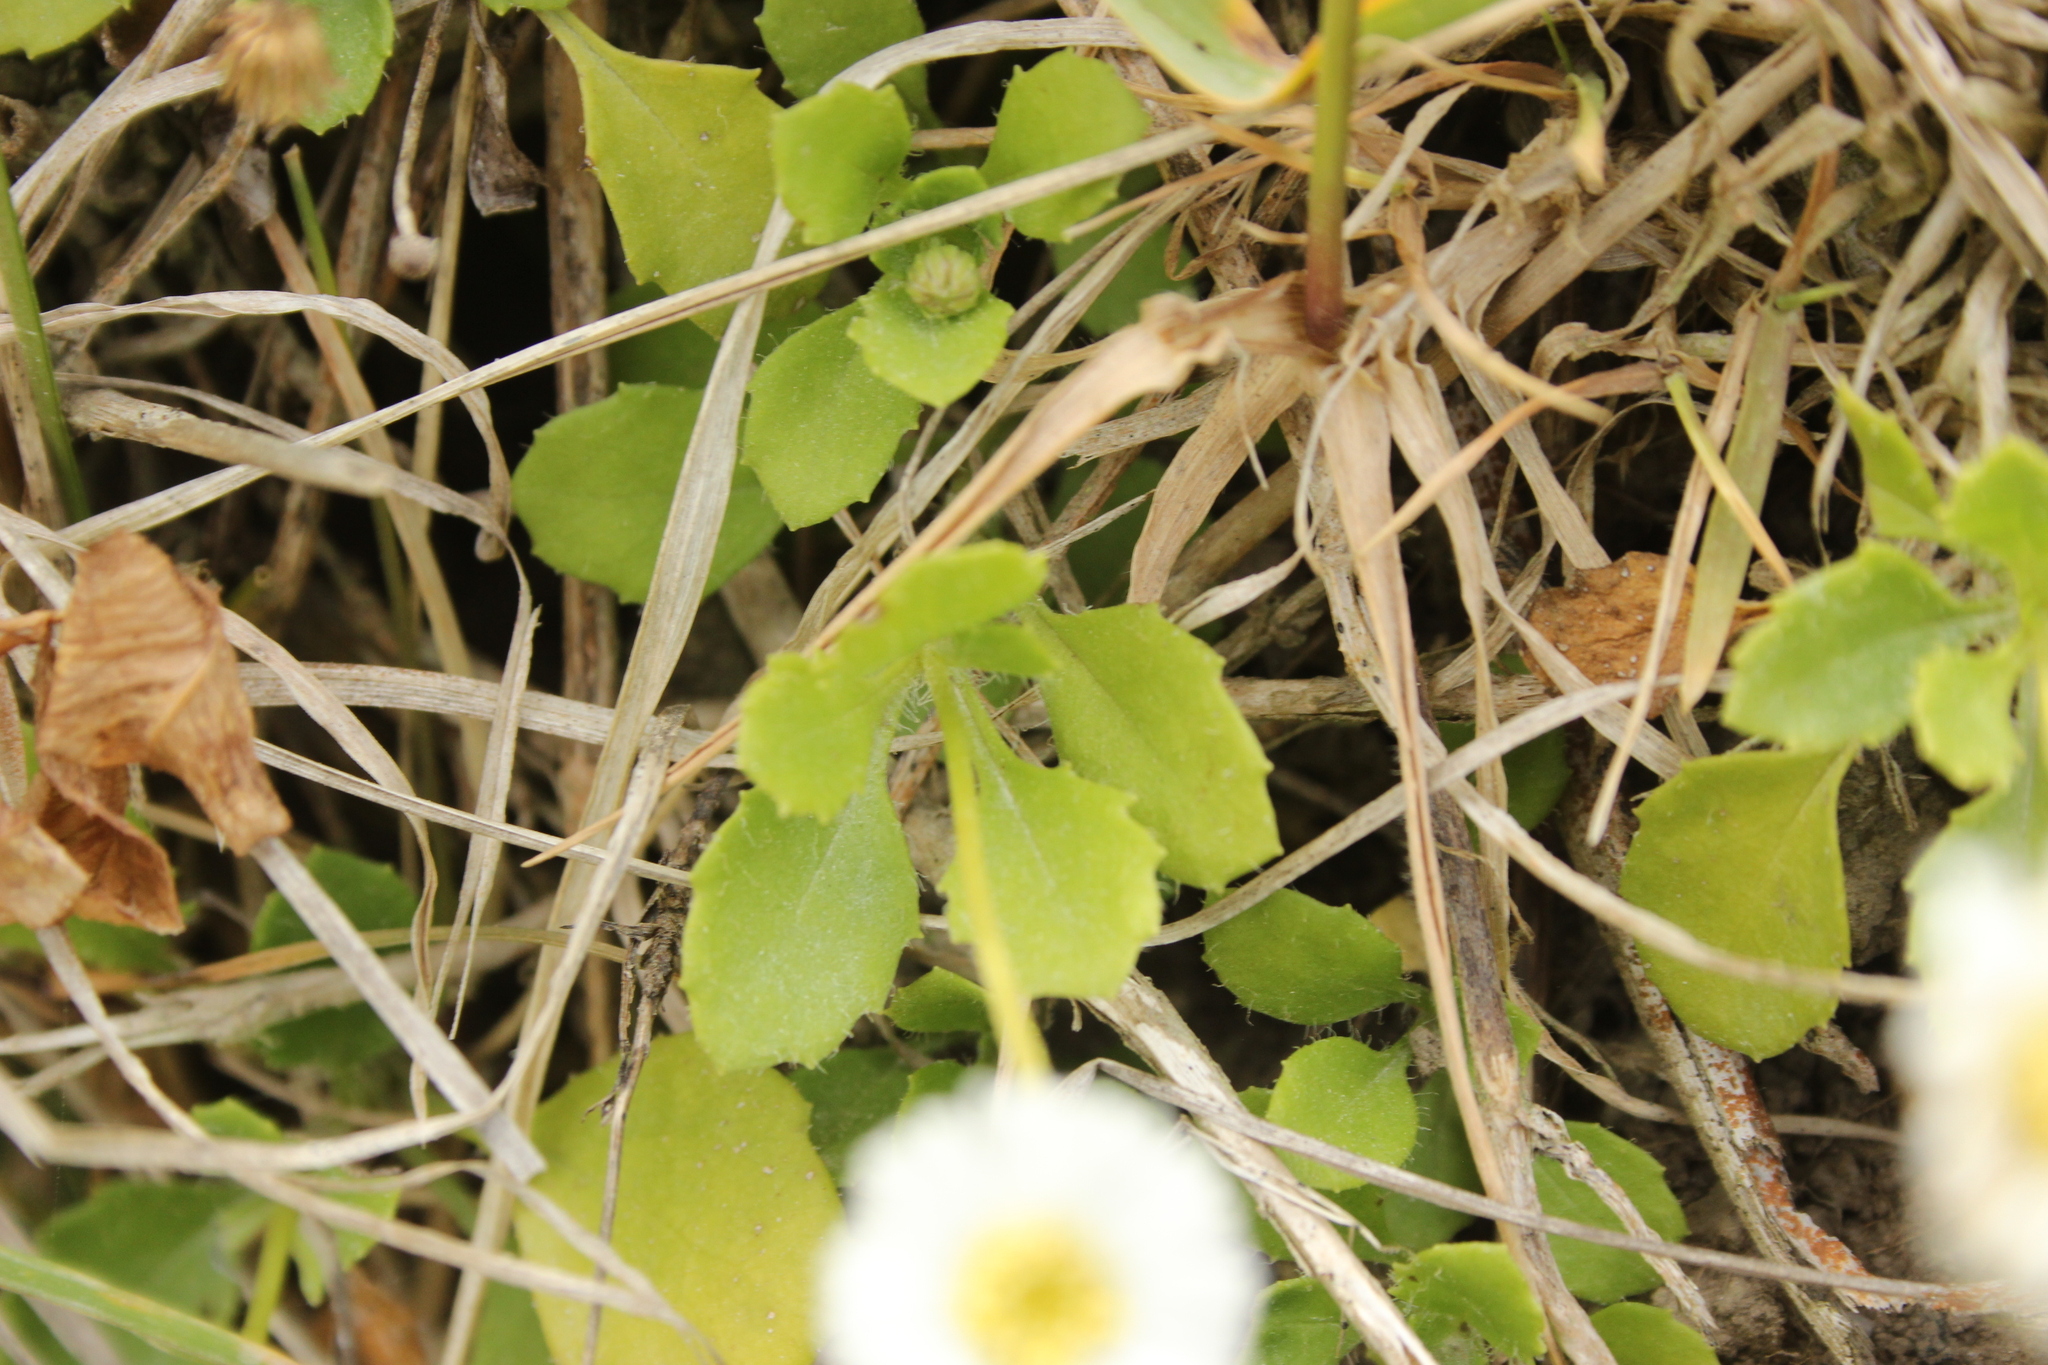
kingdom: Plantae
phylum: Tracheophyta
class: Magnoliopsida
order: Asterales
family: Asteraceae
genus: Lagenophora
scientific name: Lagenophora pumila
